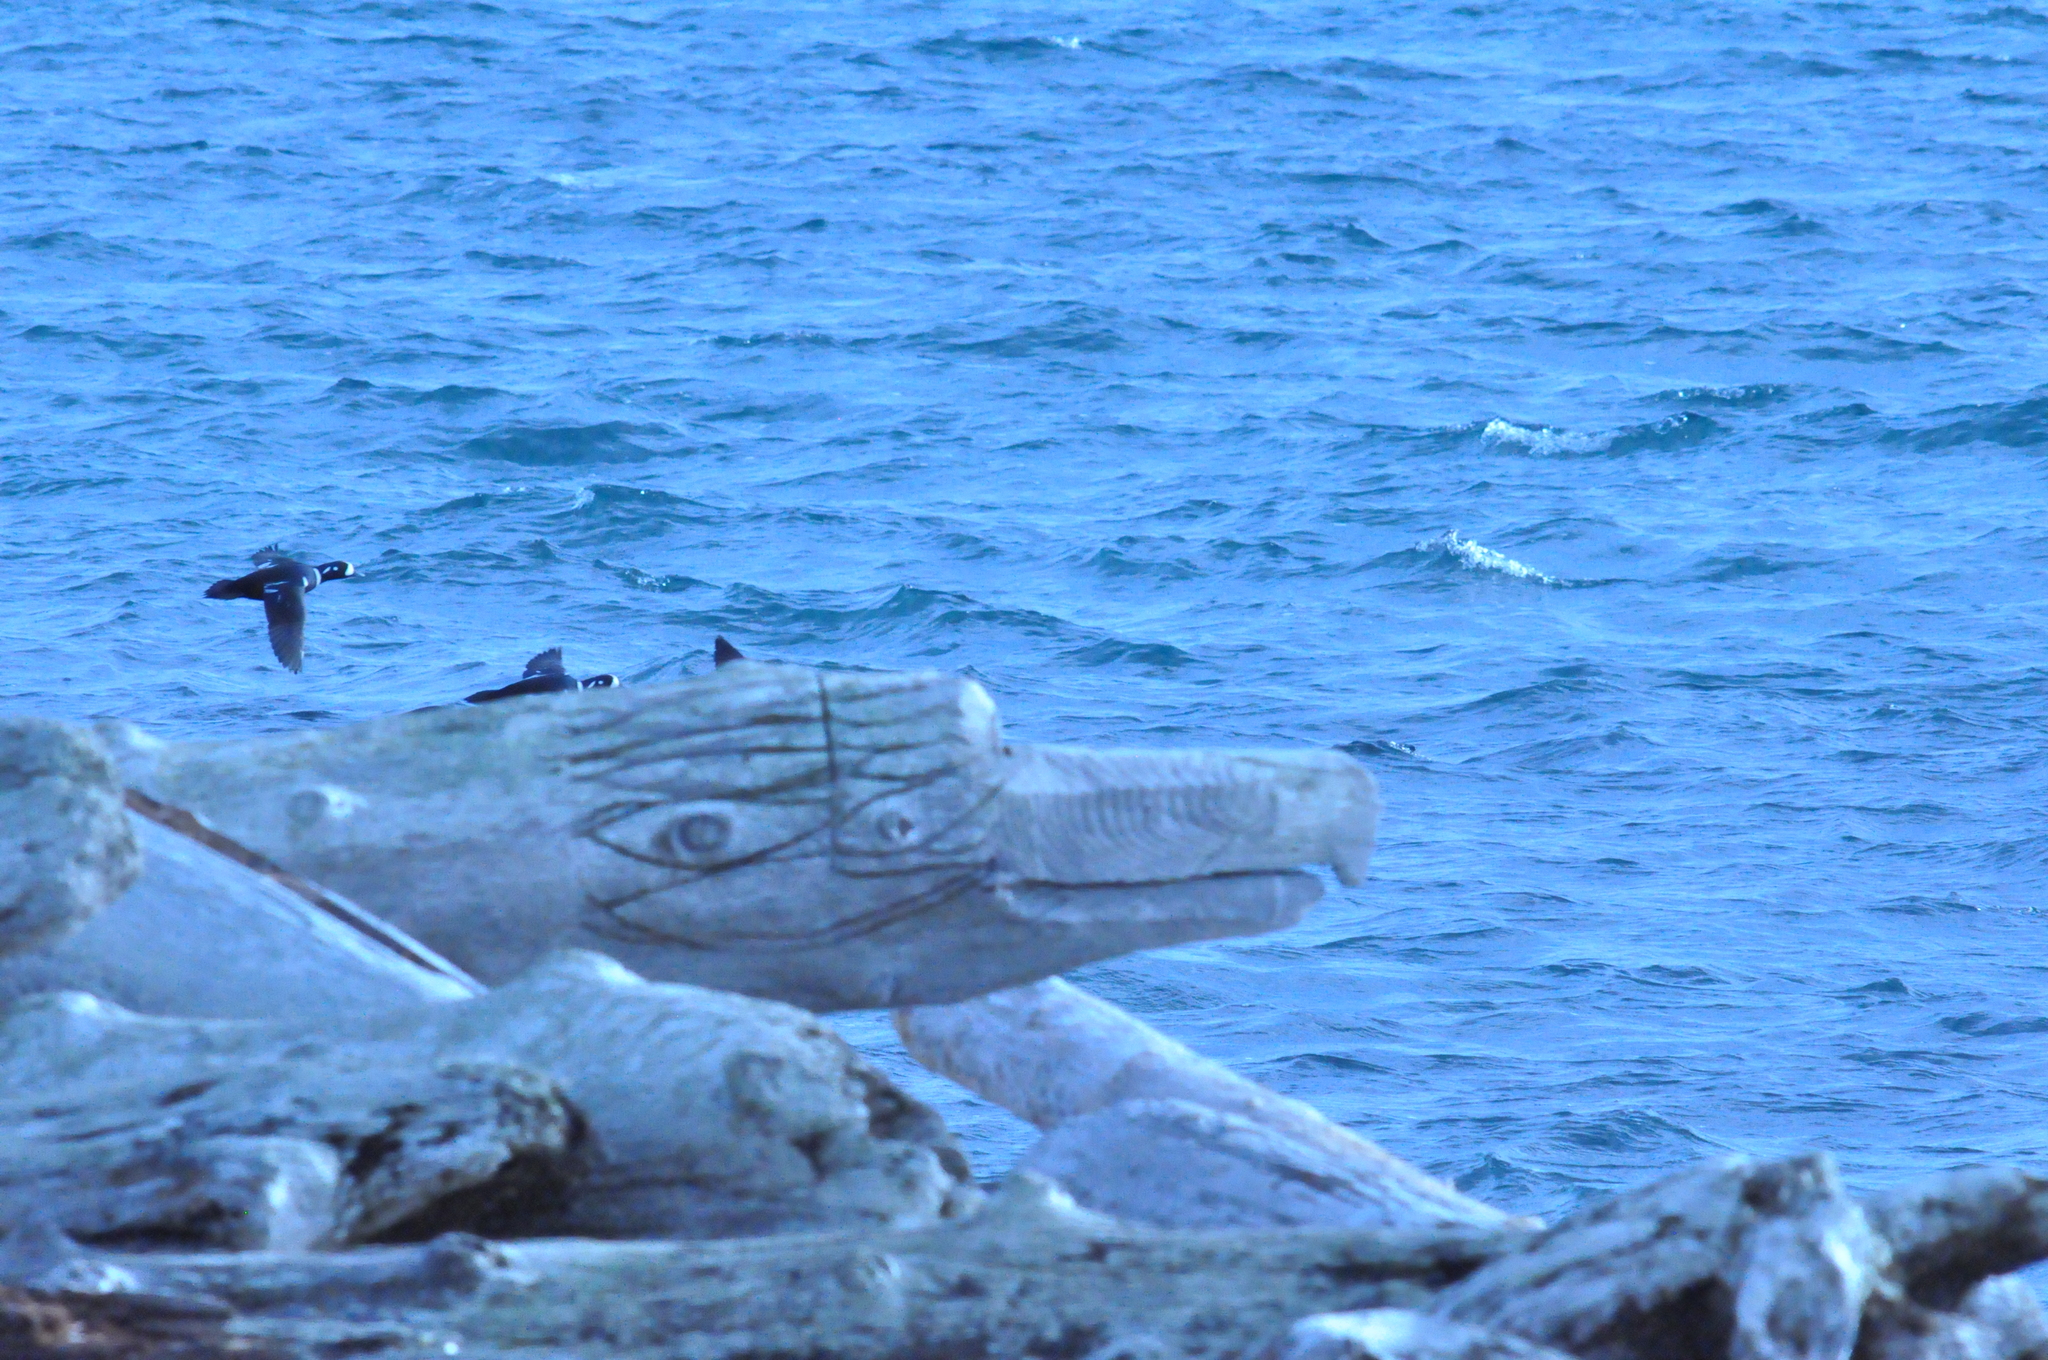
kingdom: Animalia
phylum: Chordata
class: Aves
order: Anseriformes
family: Anatidae
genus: Histrionicus
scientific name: Histrionicus histrionicus
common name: Harlequin duck
